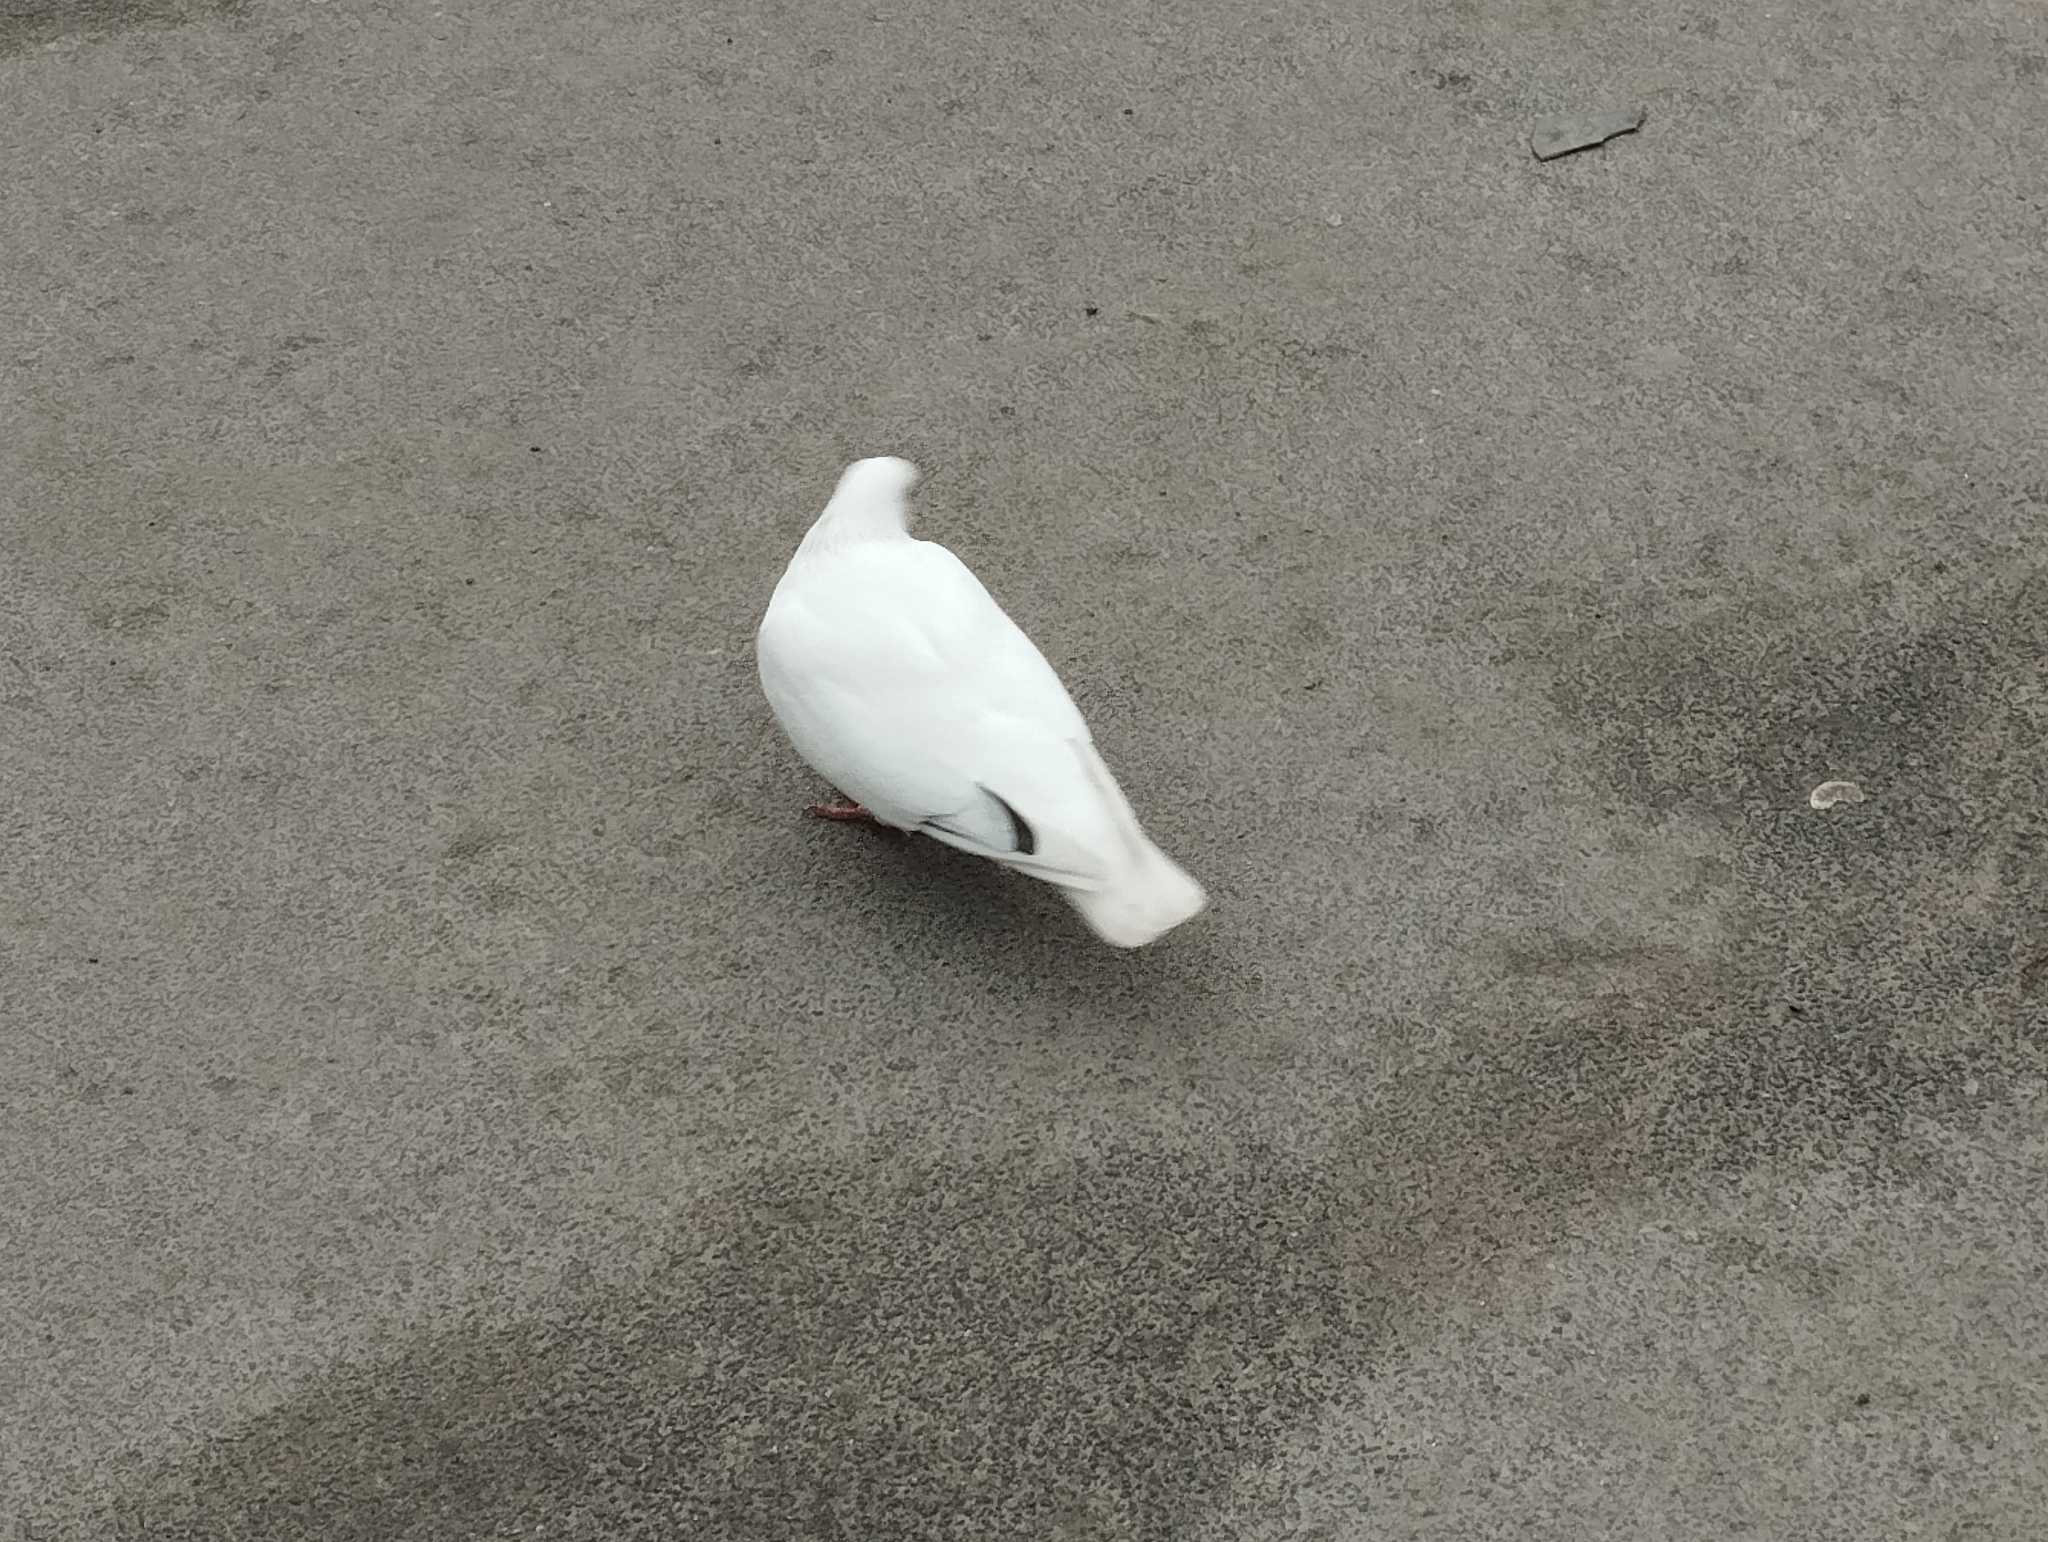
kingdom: Animalia
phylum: Chordata
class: Aves
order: Columbiformes
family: Columbidae
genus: Columba
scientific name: Columba livia
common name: Rock pigeon
